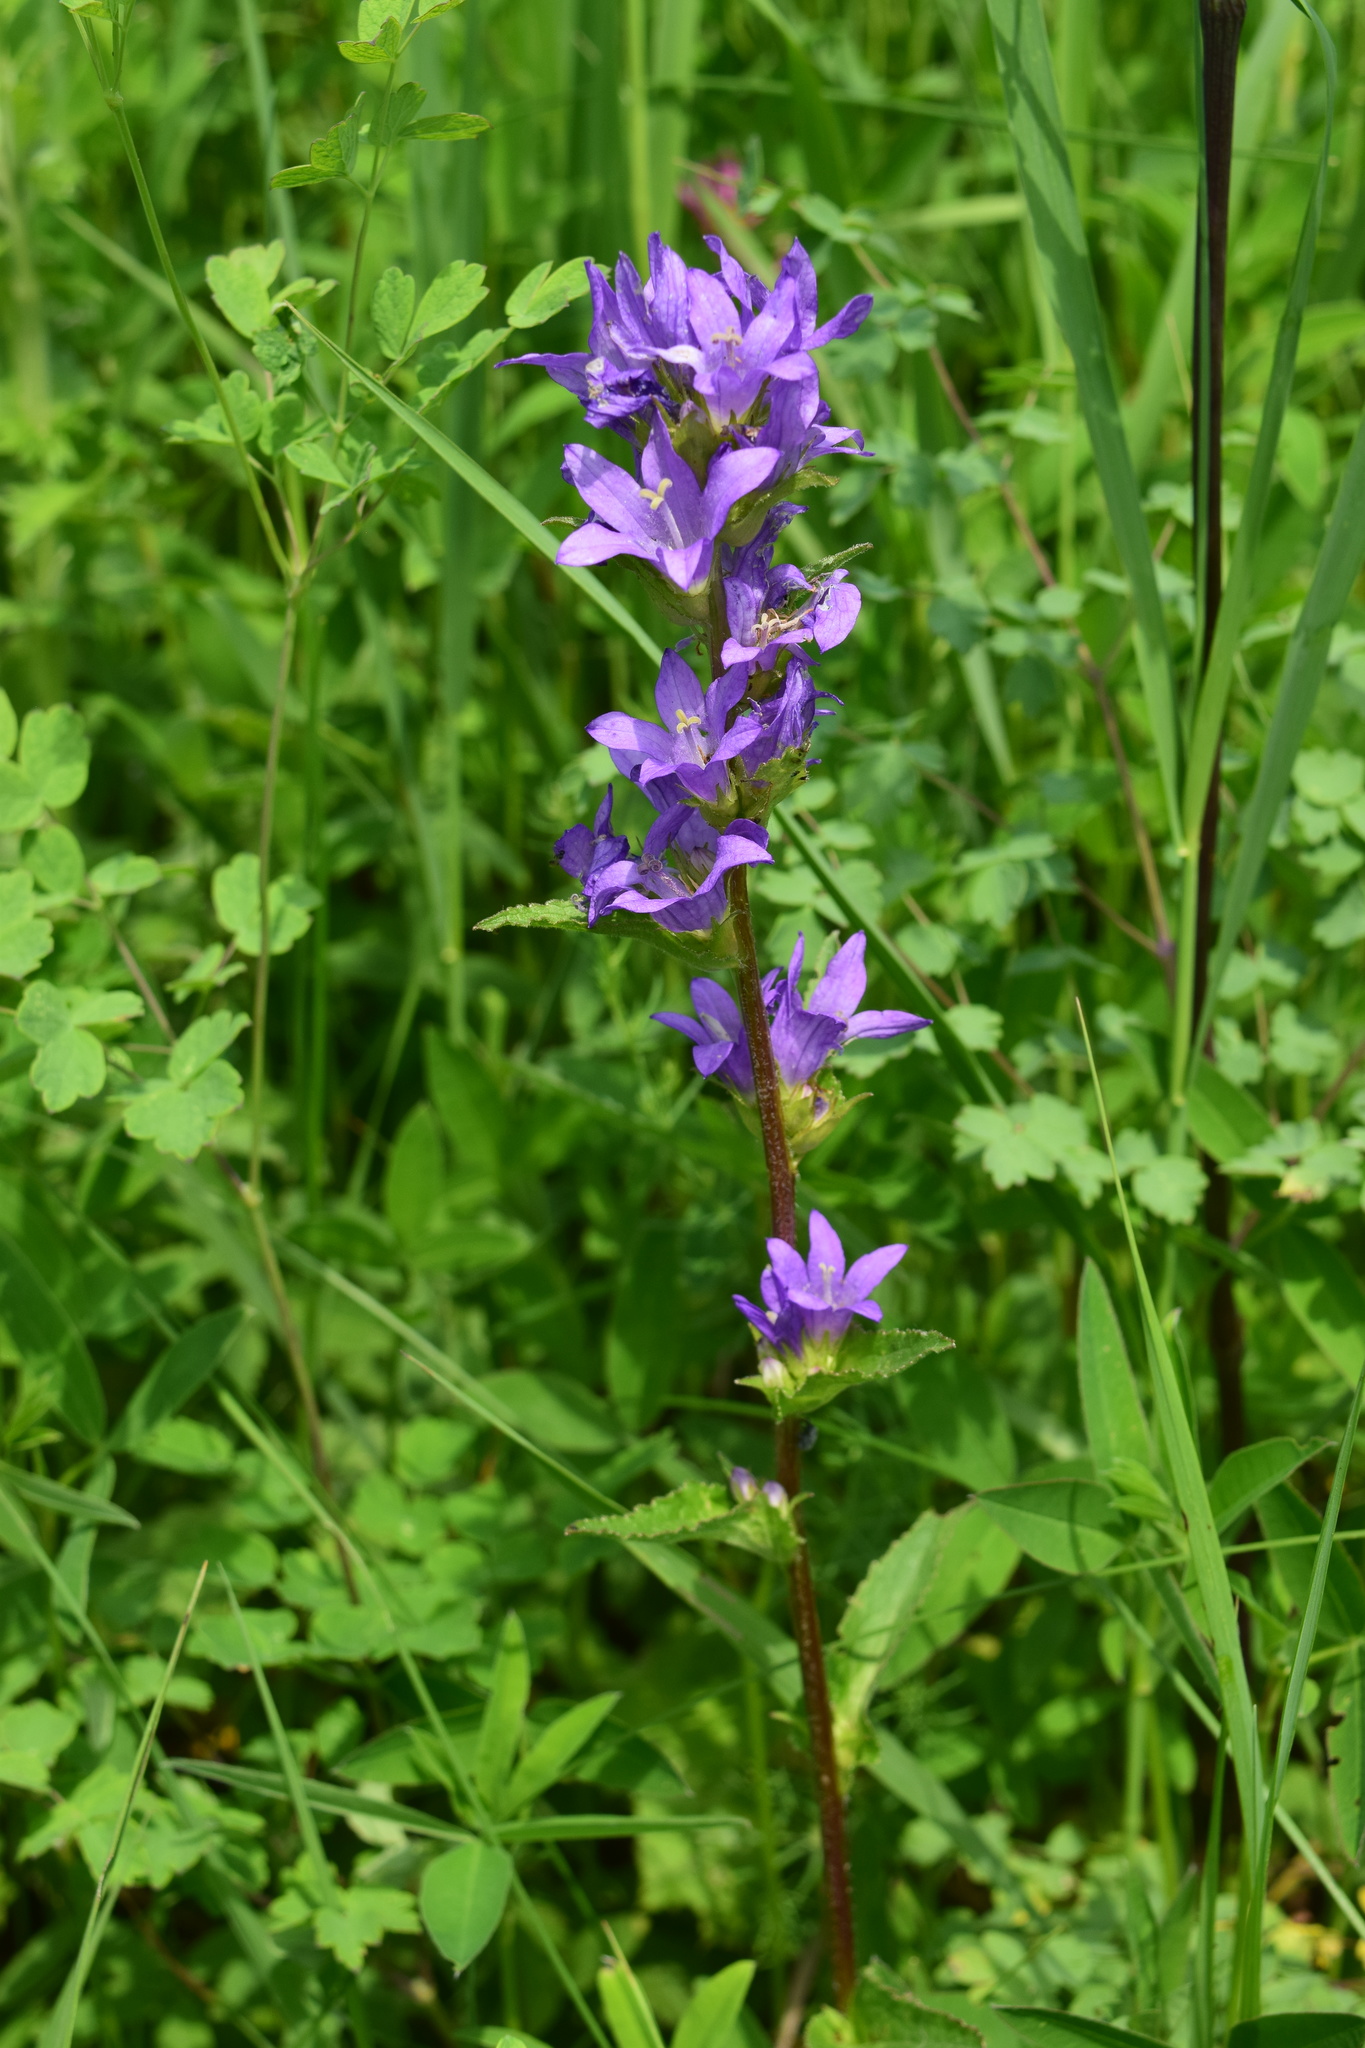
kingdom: Plantae
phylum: Tracheophyta
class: Magnoliopsida
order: Asterales
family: Campanulaceae
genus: Campanula
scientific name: Campanula glomerata
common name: Clustered bellflower
